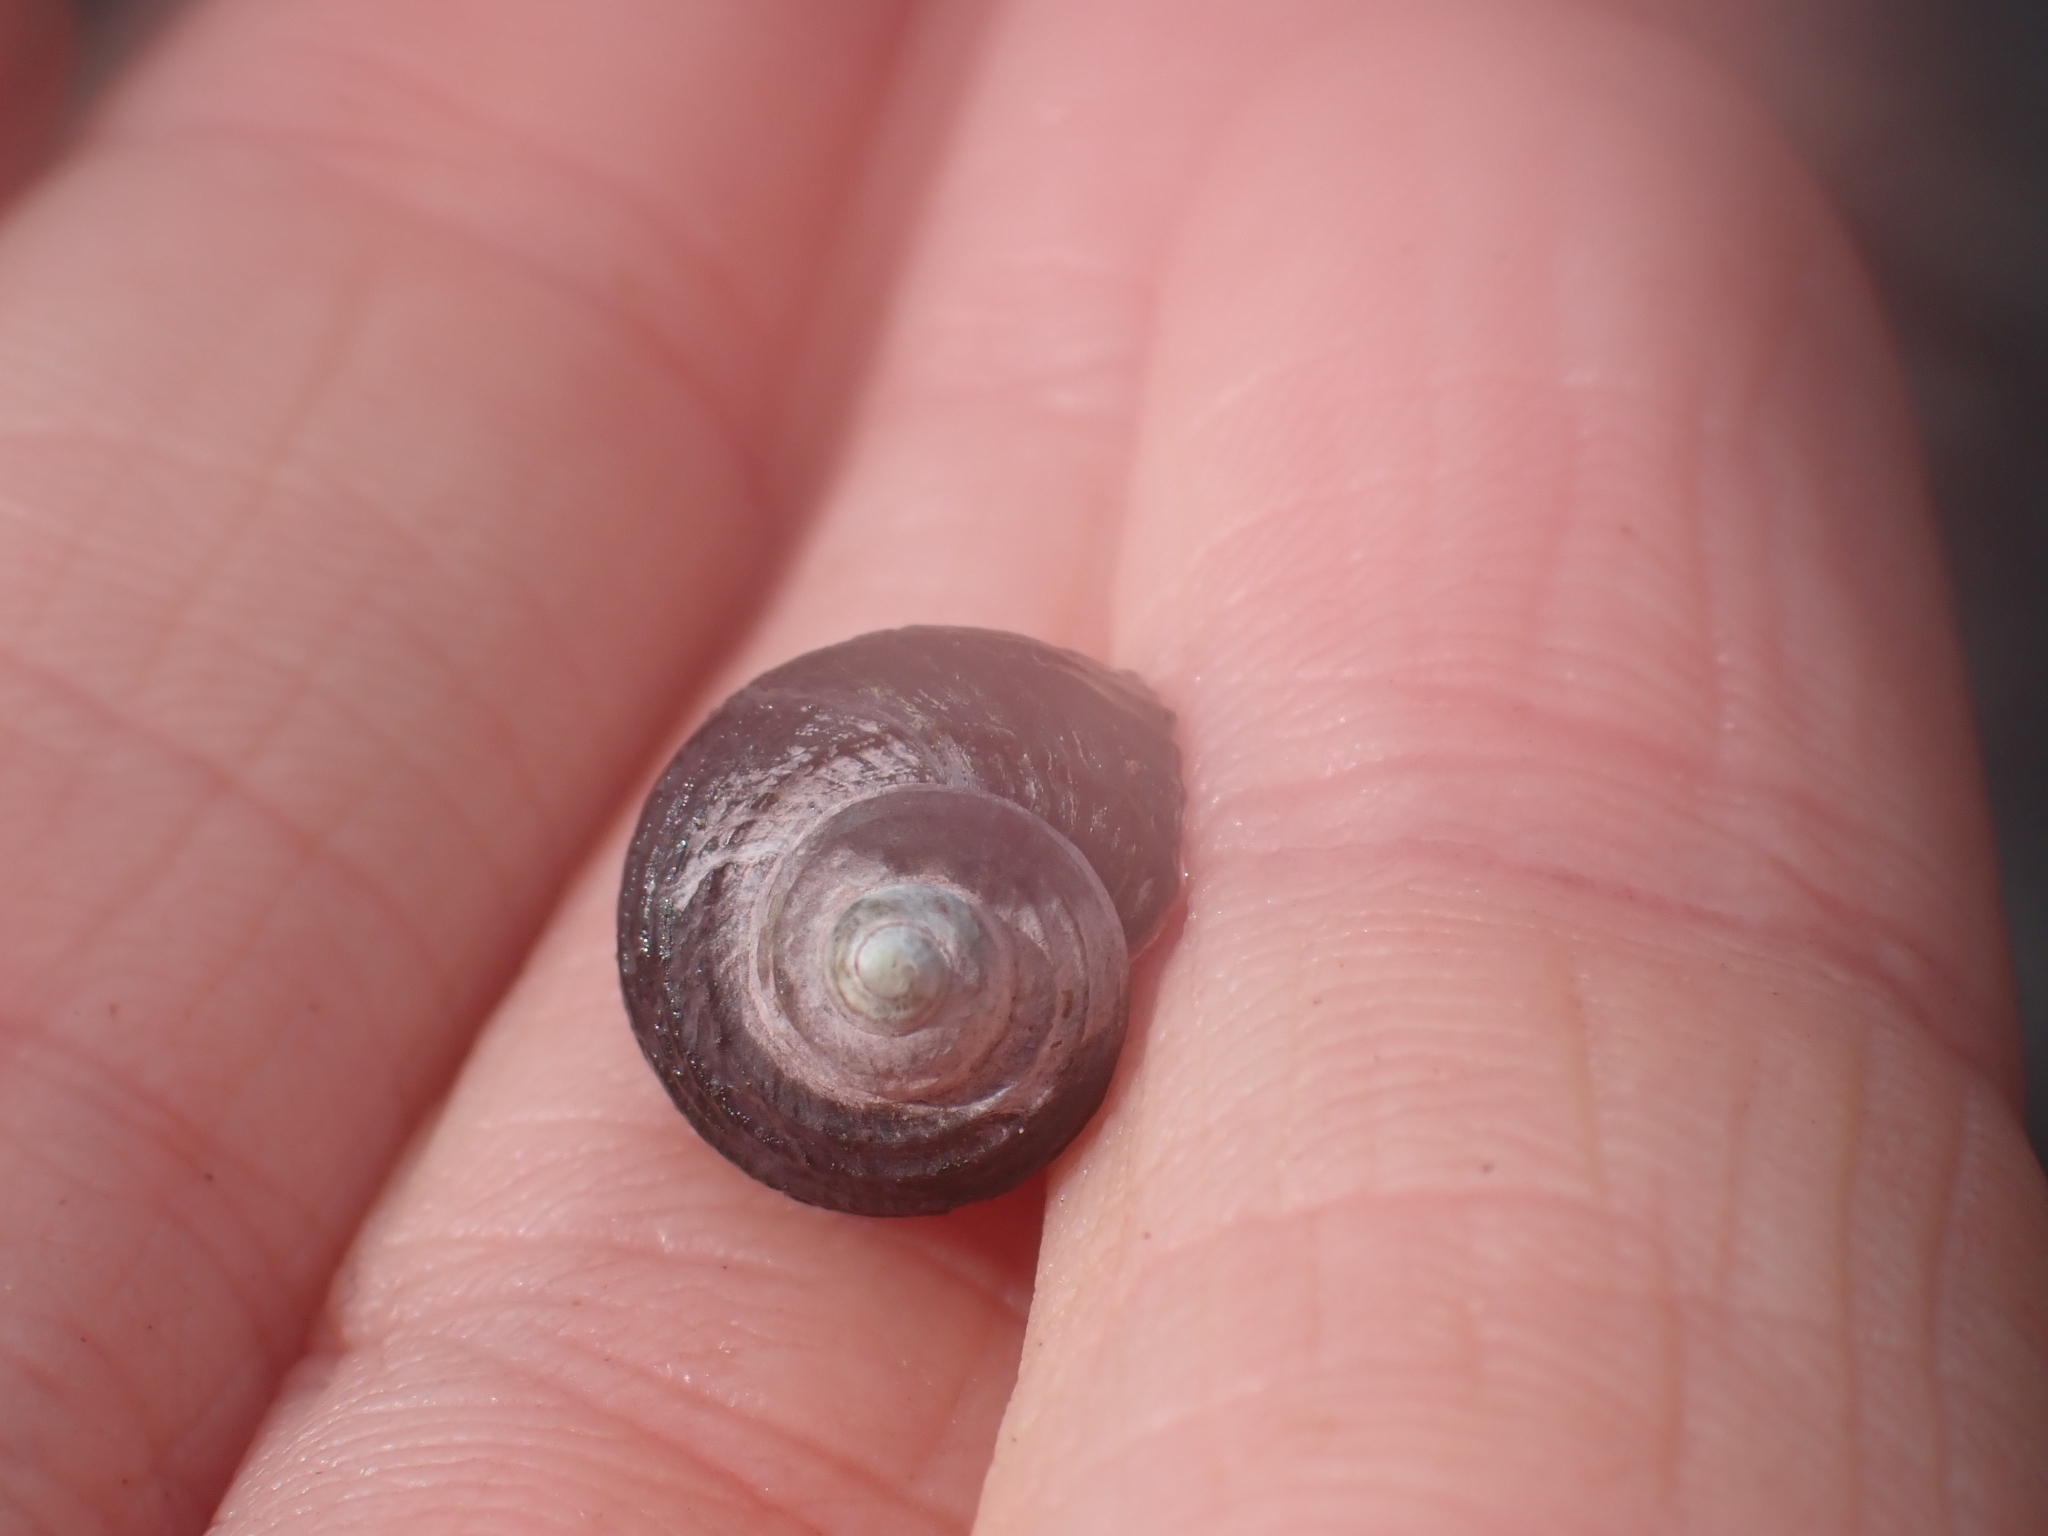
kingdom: Animalia
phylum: Mollusca
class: Gastropoda
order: Littorinimorpha
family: Littorinidae
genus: Littorina
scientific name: Littorina sitkana
